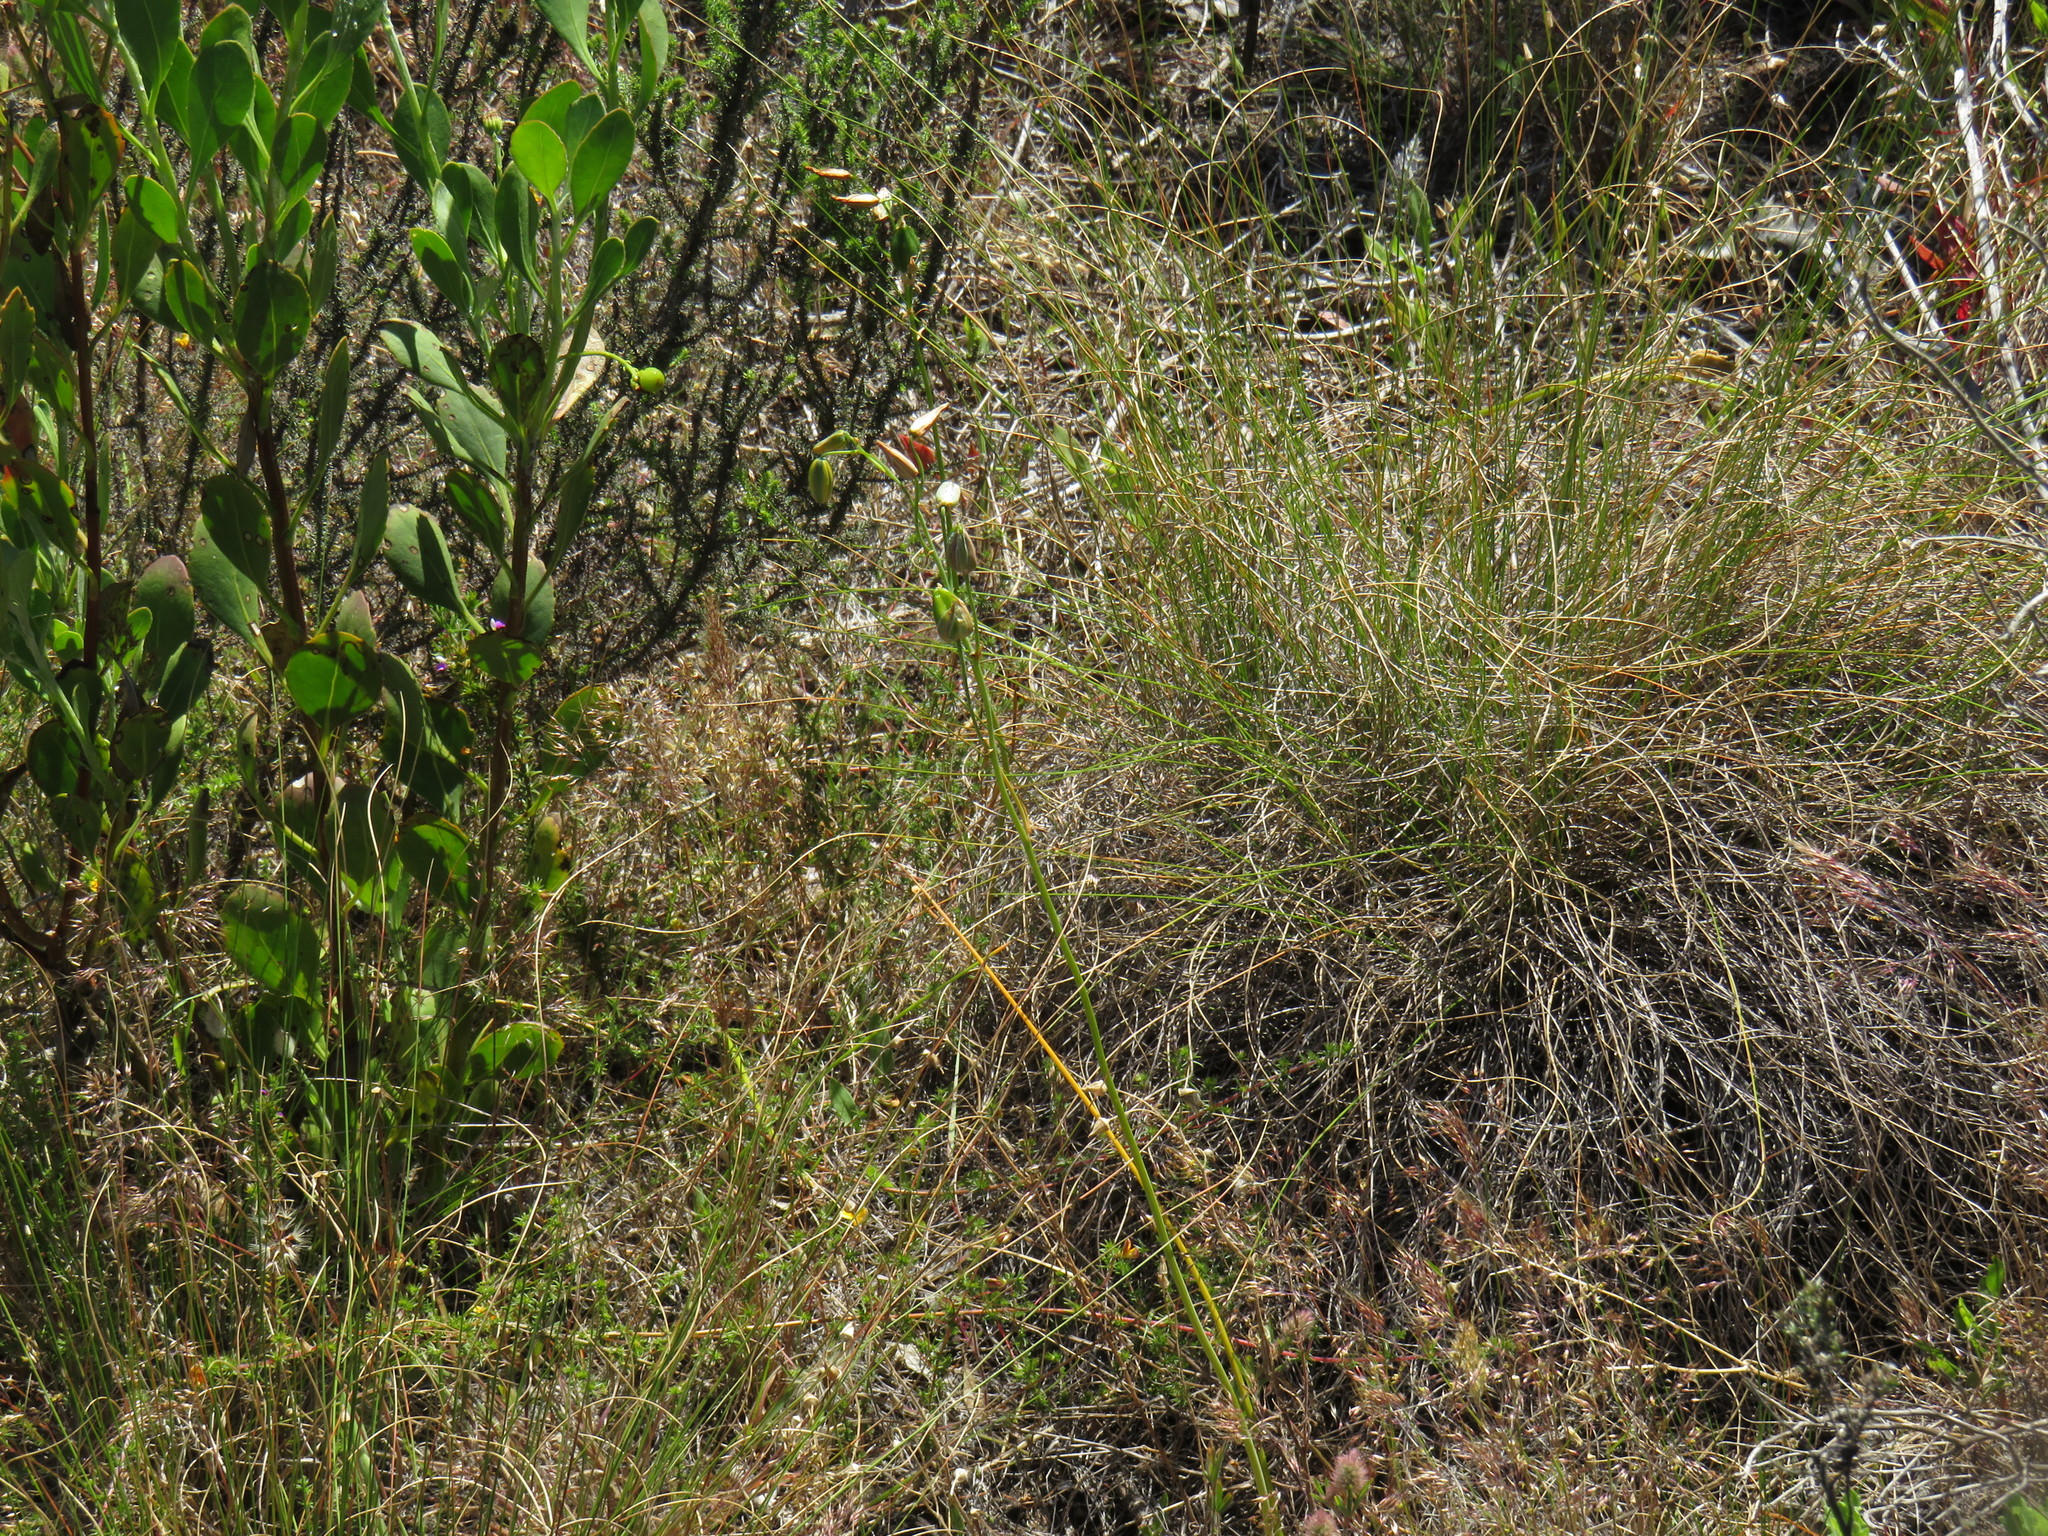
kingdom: Plantae
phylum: Tracheophyta
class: Liliopsida
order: Asparagales
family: Asparagaceae
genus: Albuca
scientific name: Albuca cooperi
